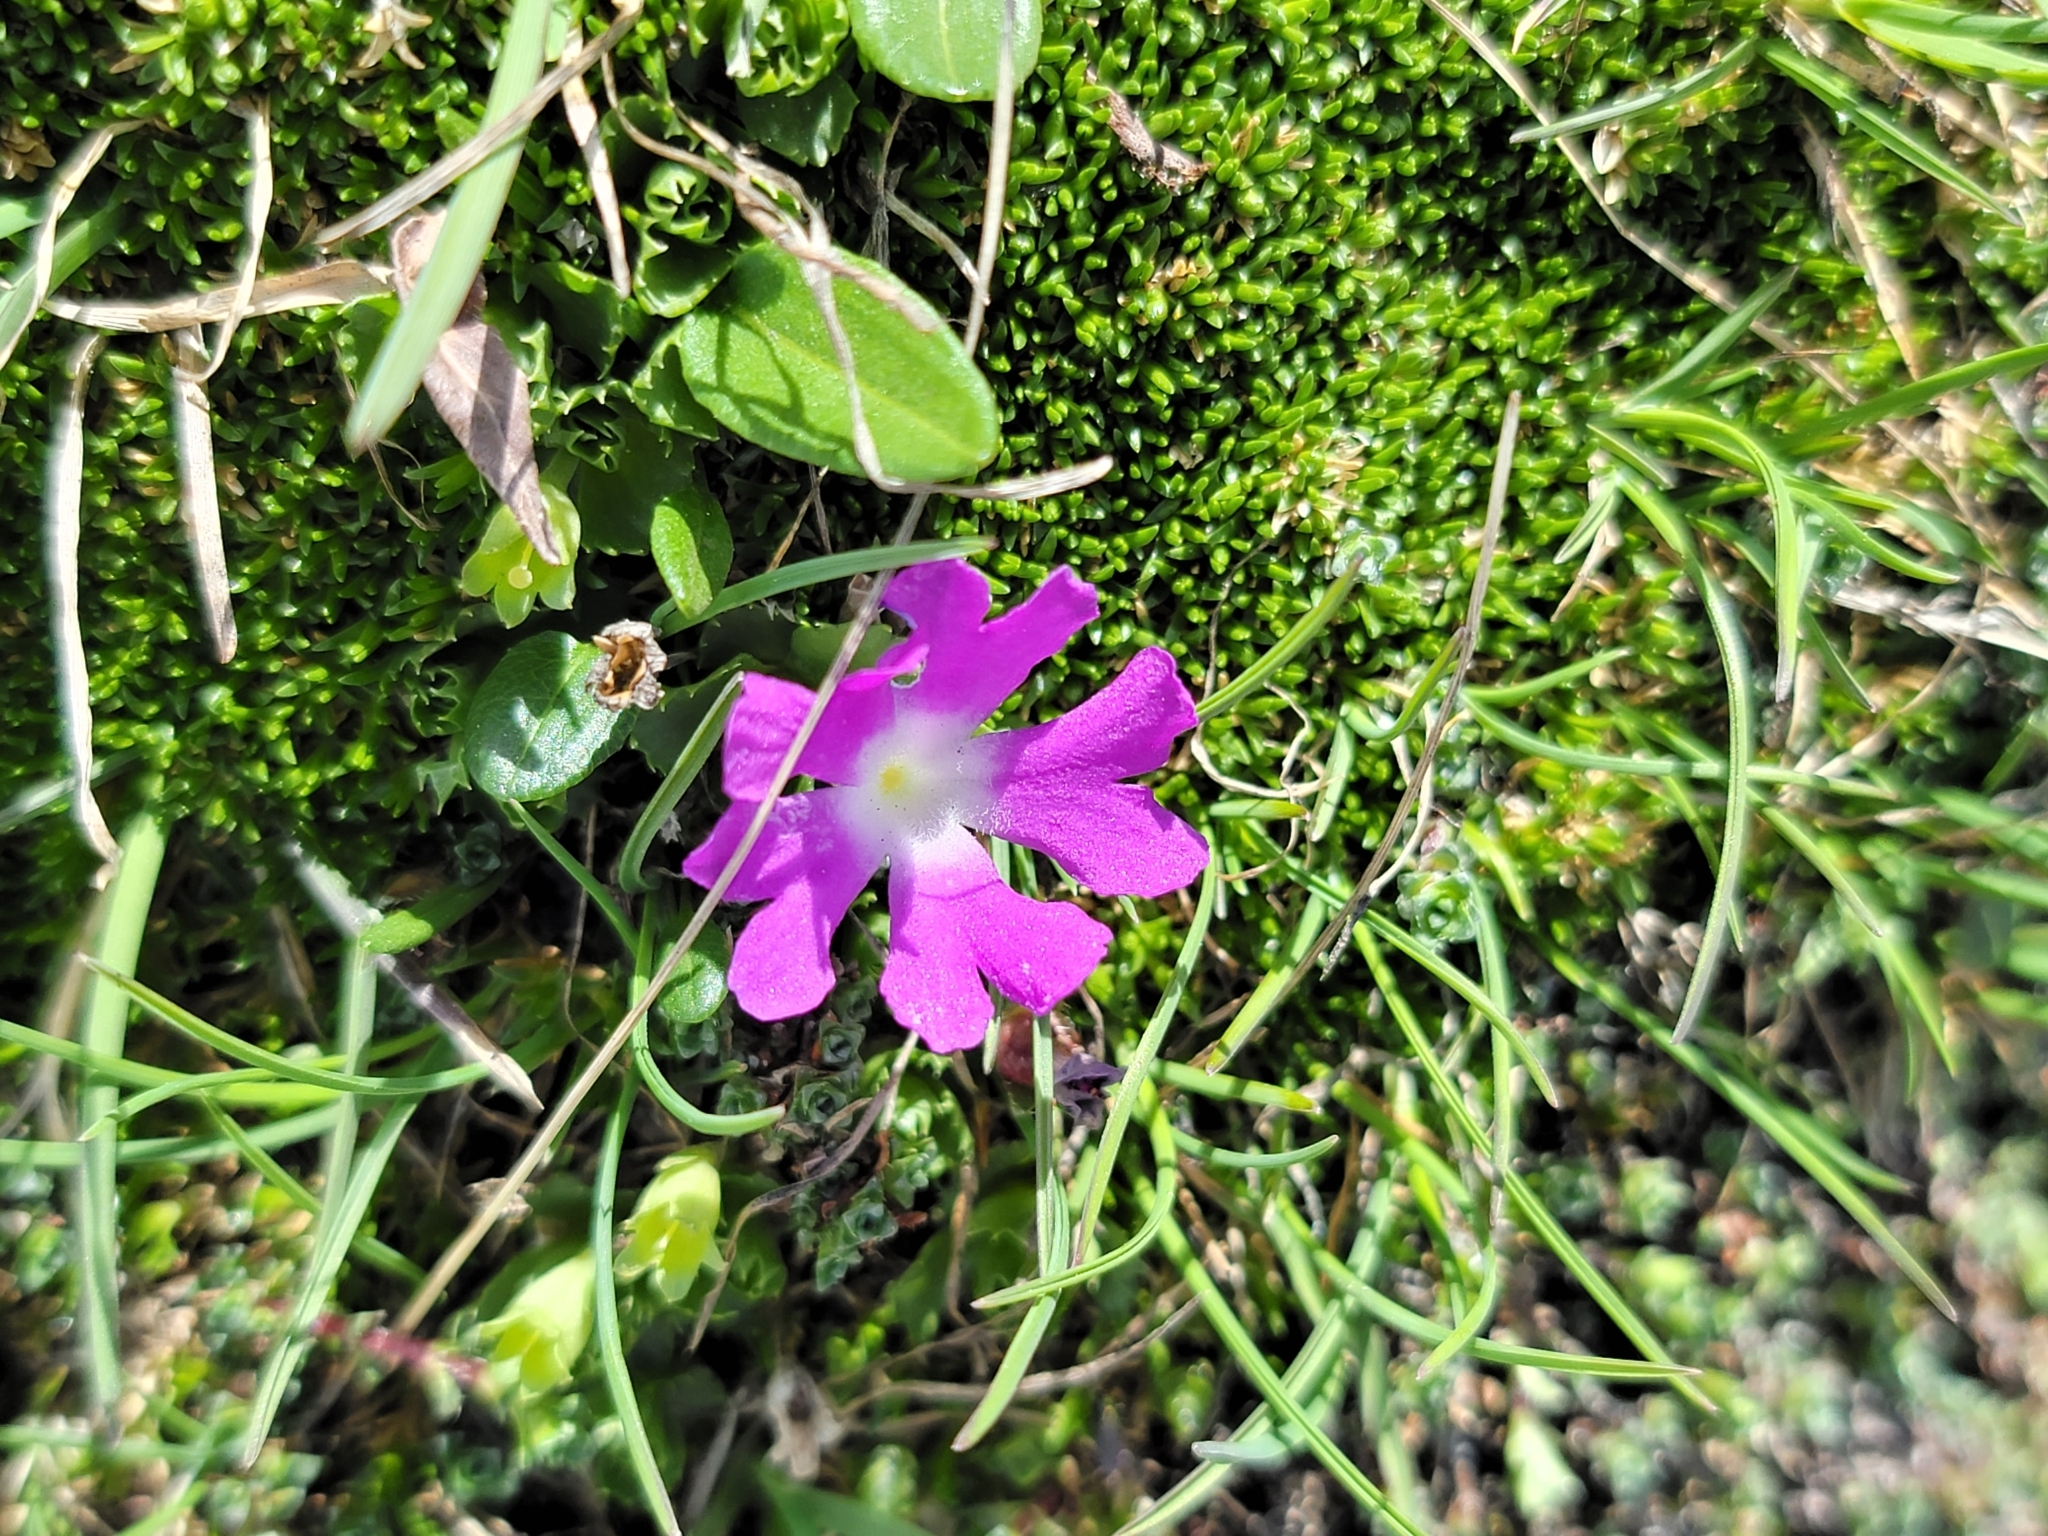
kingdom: Plantae
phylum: Tracheophyta
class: Magnoliopsida
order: Ericales
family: Primulaceae
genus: Primula
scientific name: Primula minima
